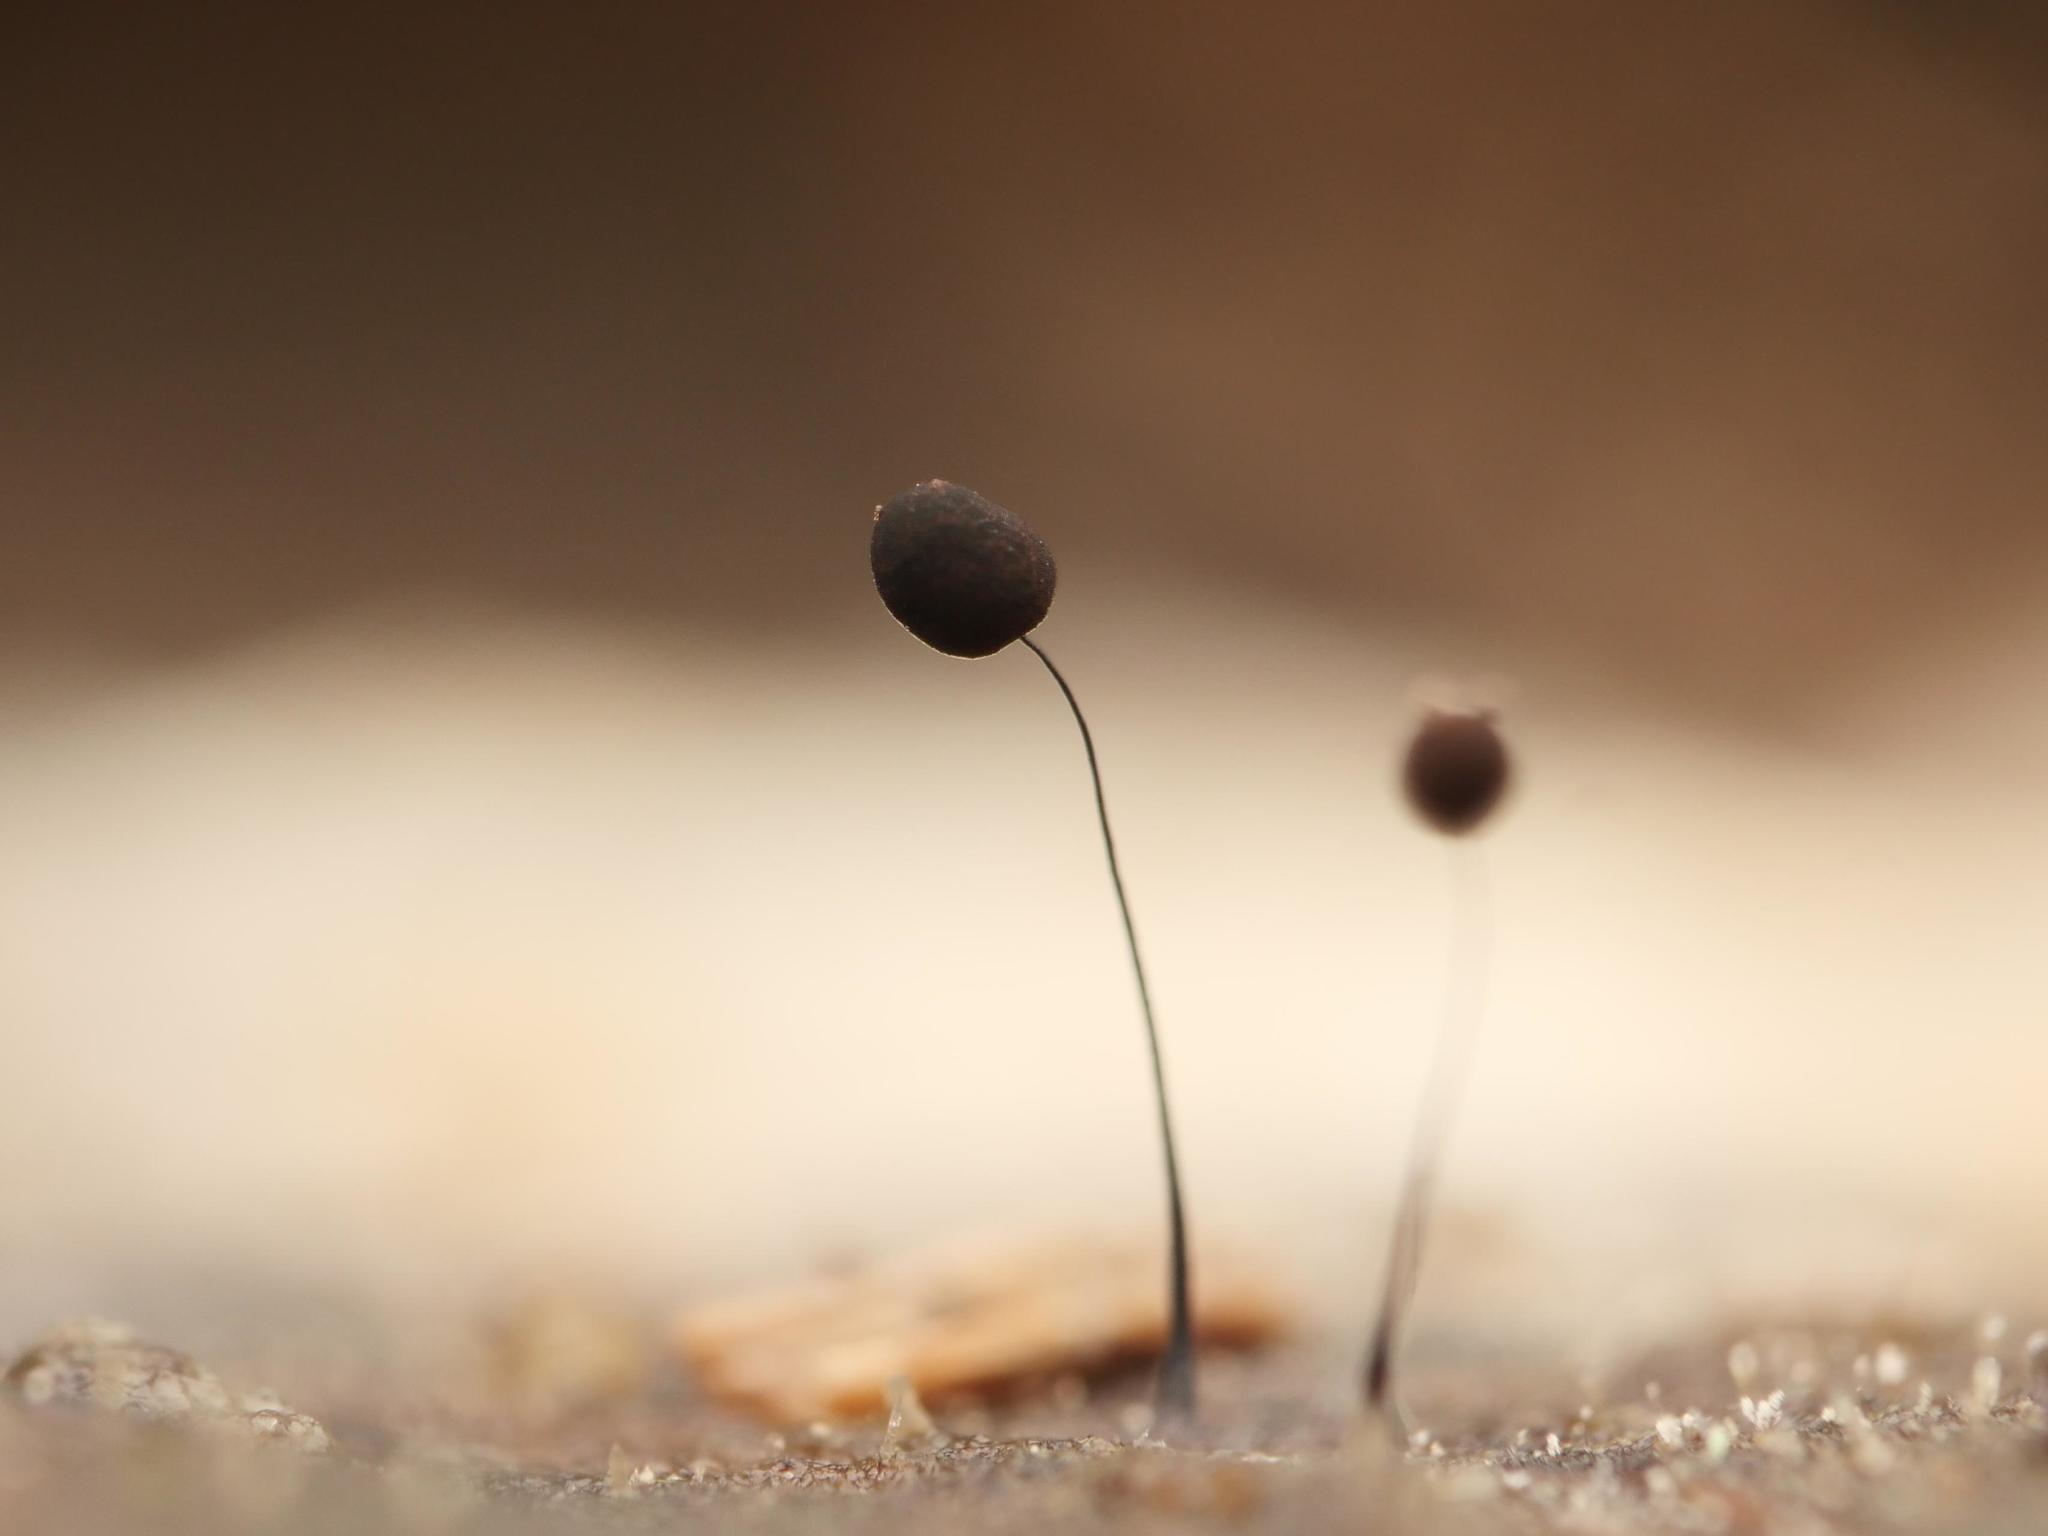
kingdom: Protozoa
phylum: Mycetozoa
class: Myxomycetes
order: Stemonitidales
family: Stemonitidaceae
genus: Comatricha
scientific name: Comatricha nigra
